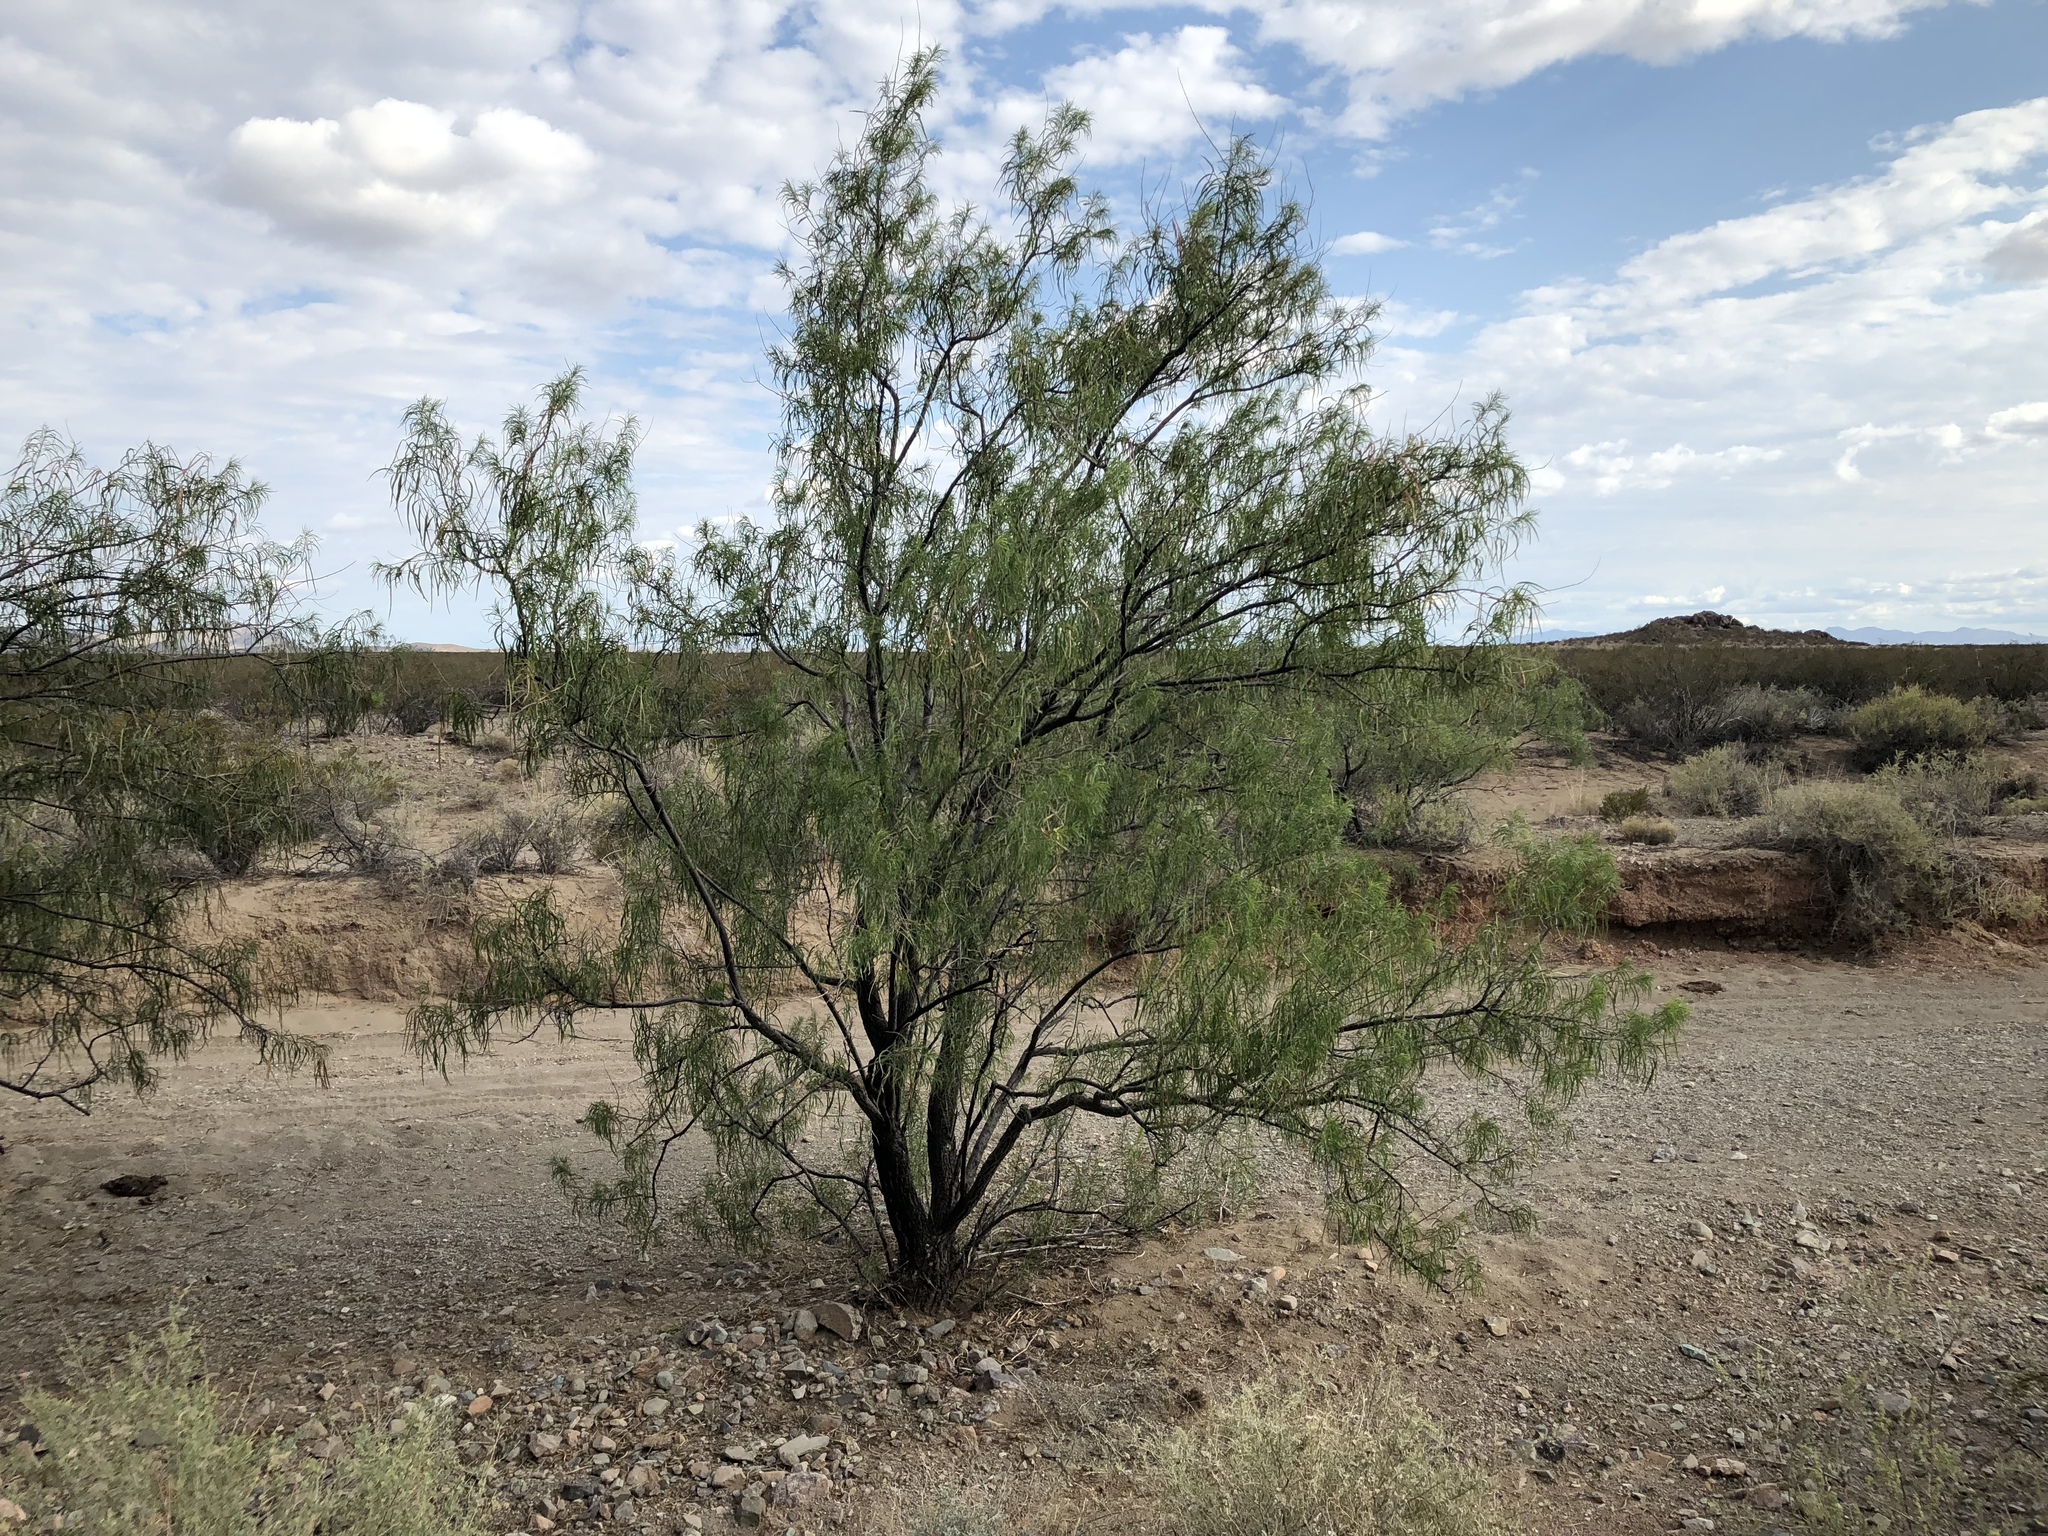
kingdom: Plantae
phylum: Tracheophyta
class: Magnoliopsida
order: Lamiales
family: Bignoniaceae
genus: Chilopsis
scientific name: Chilopsis linearis
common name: Desert-willow
